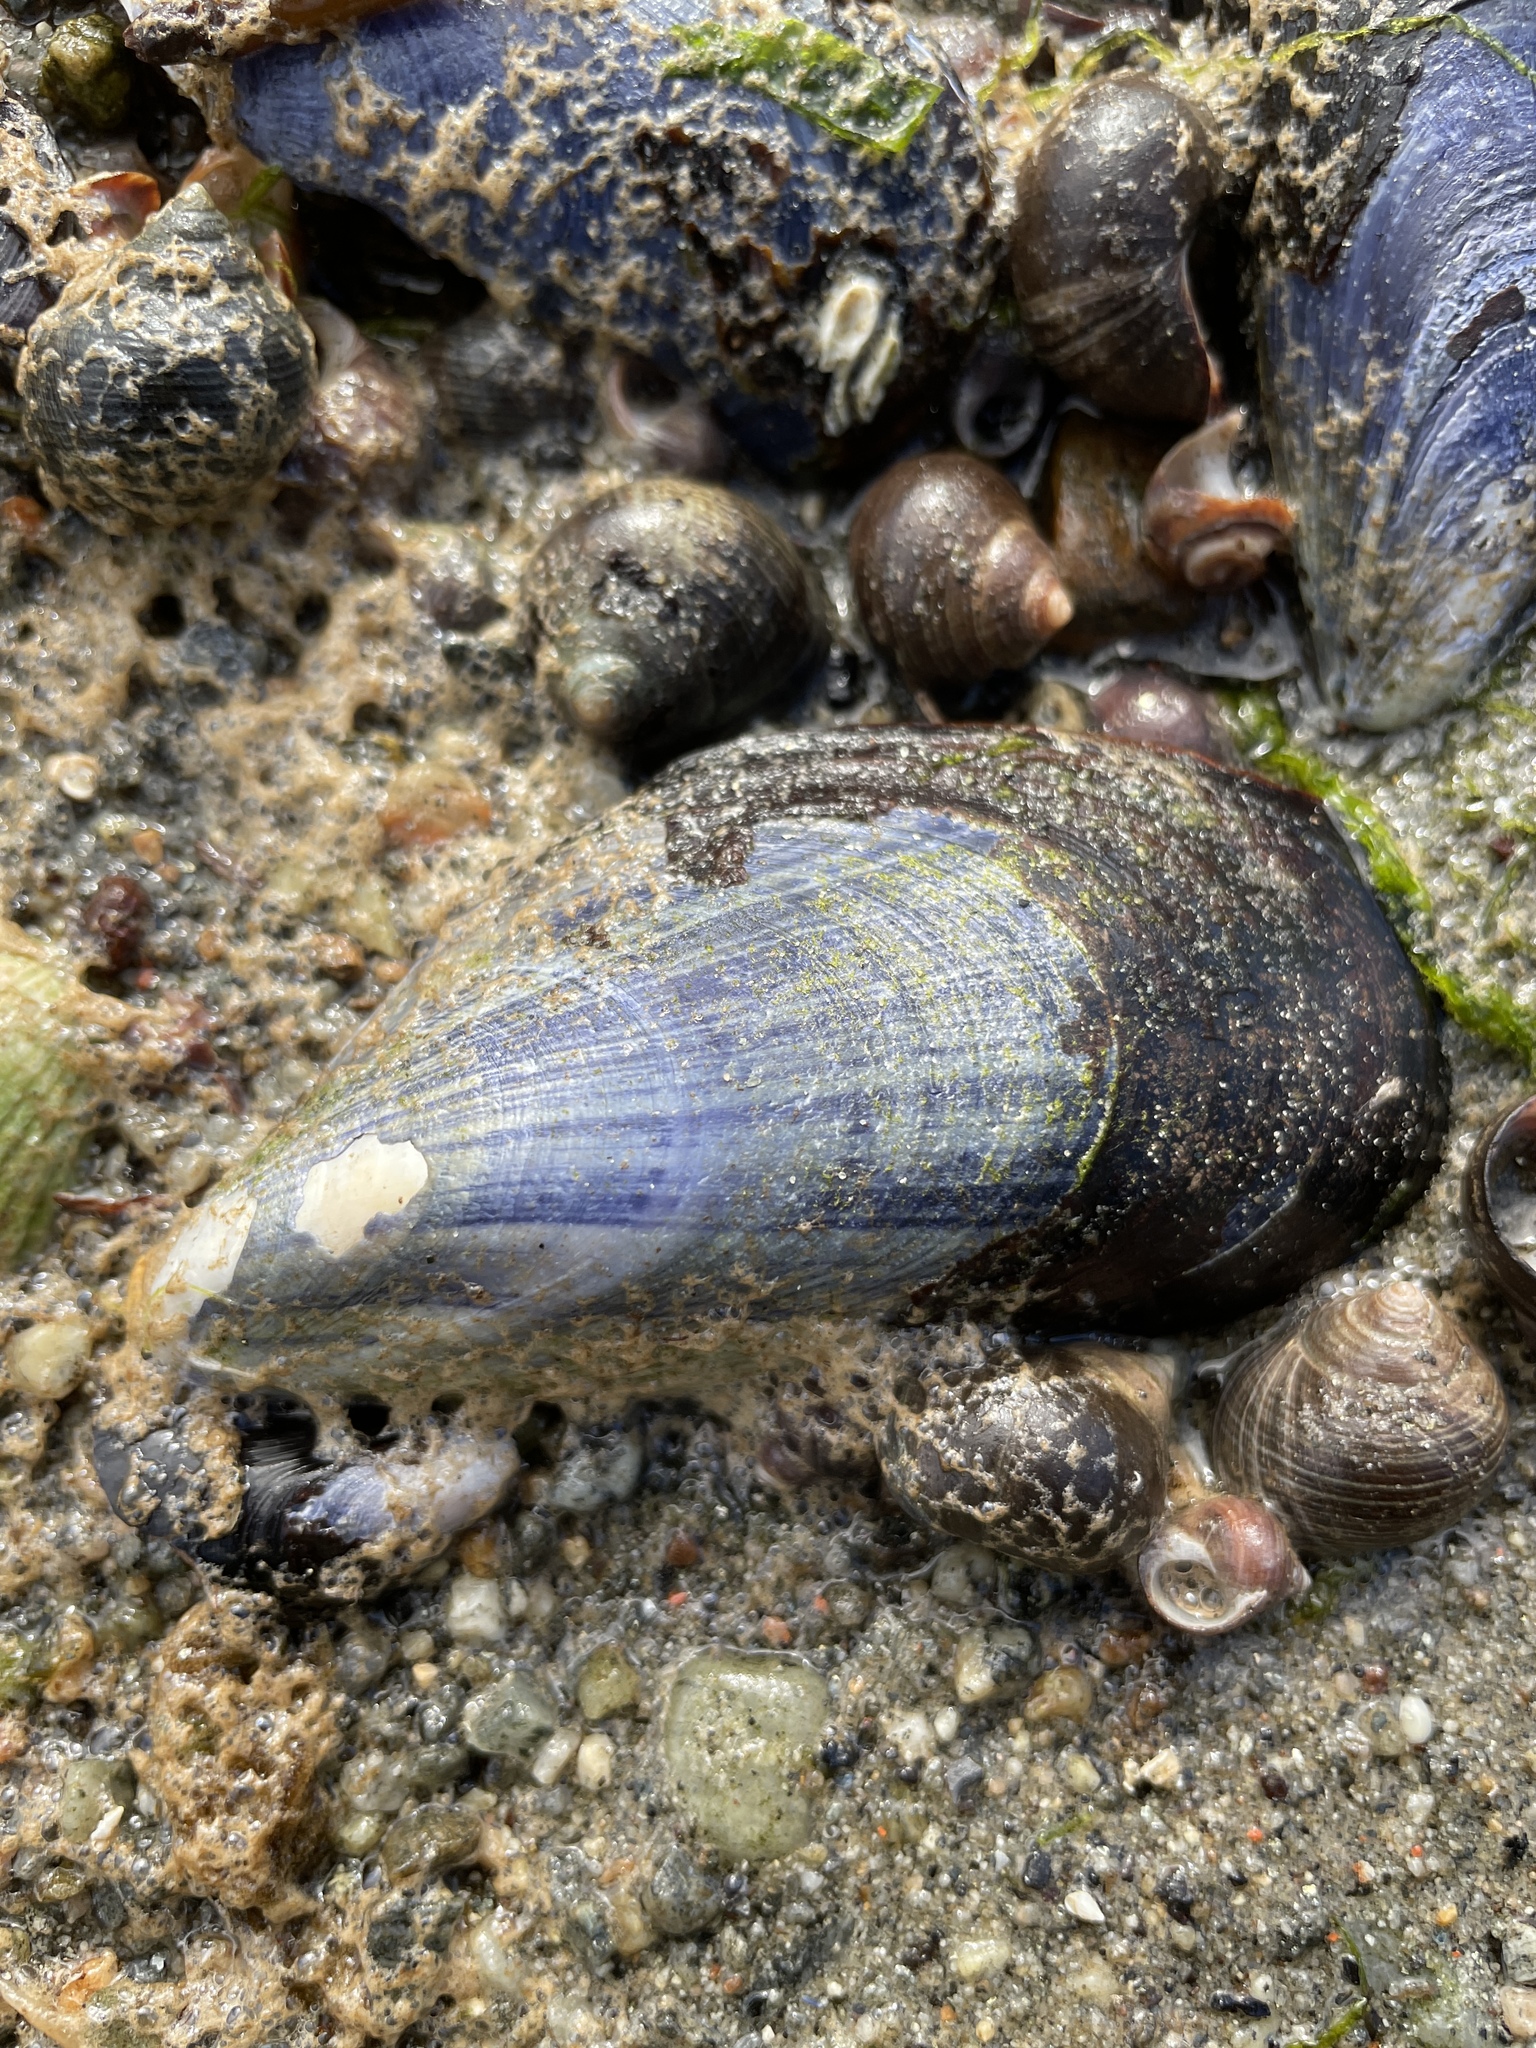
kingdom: Animalia
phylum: Mollusca
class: Bivalvia
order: Mytilida
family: Mytilidae
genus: Mytilus
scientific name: Mytilus edulis
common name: Blue mussel
